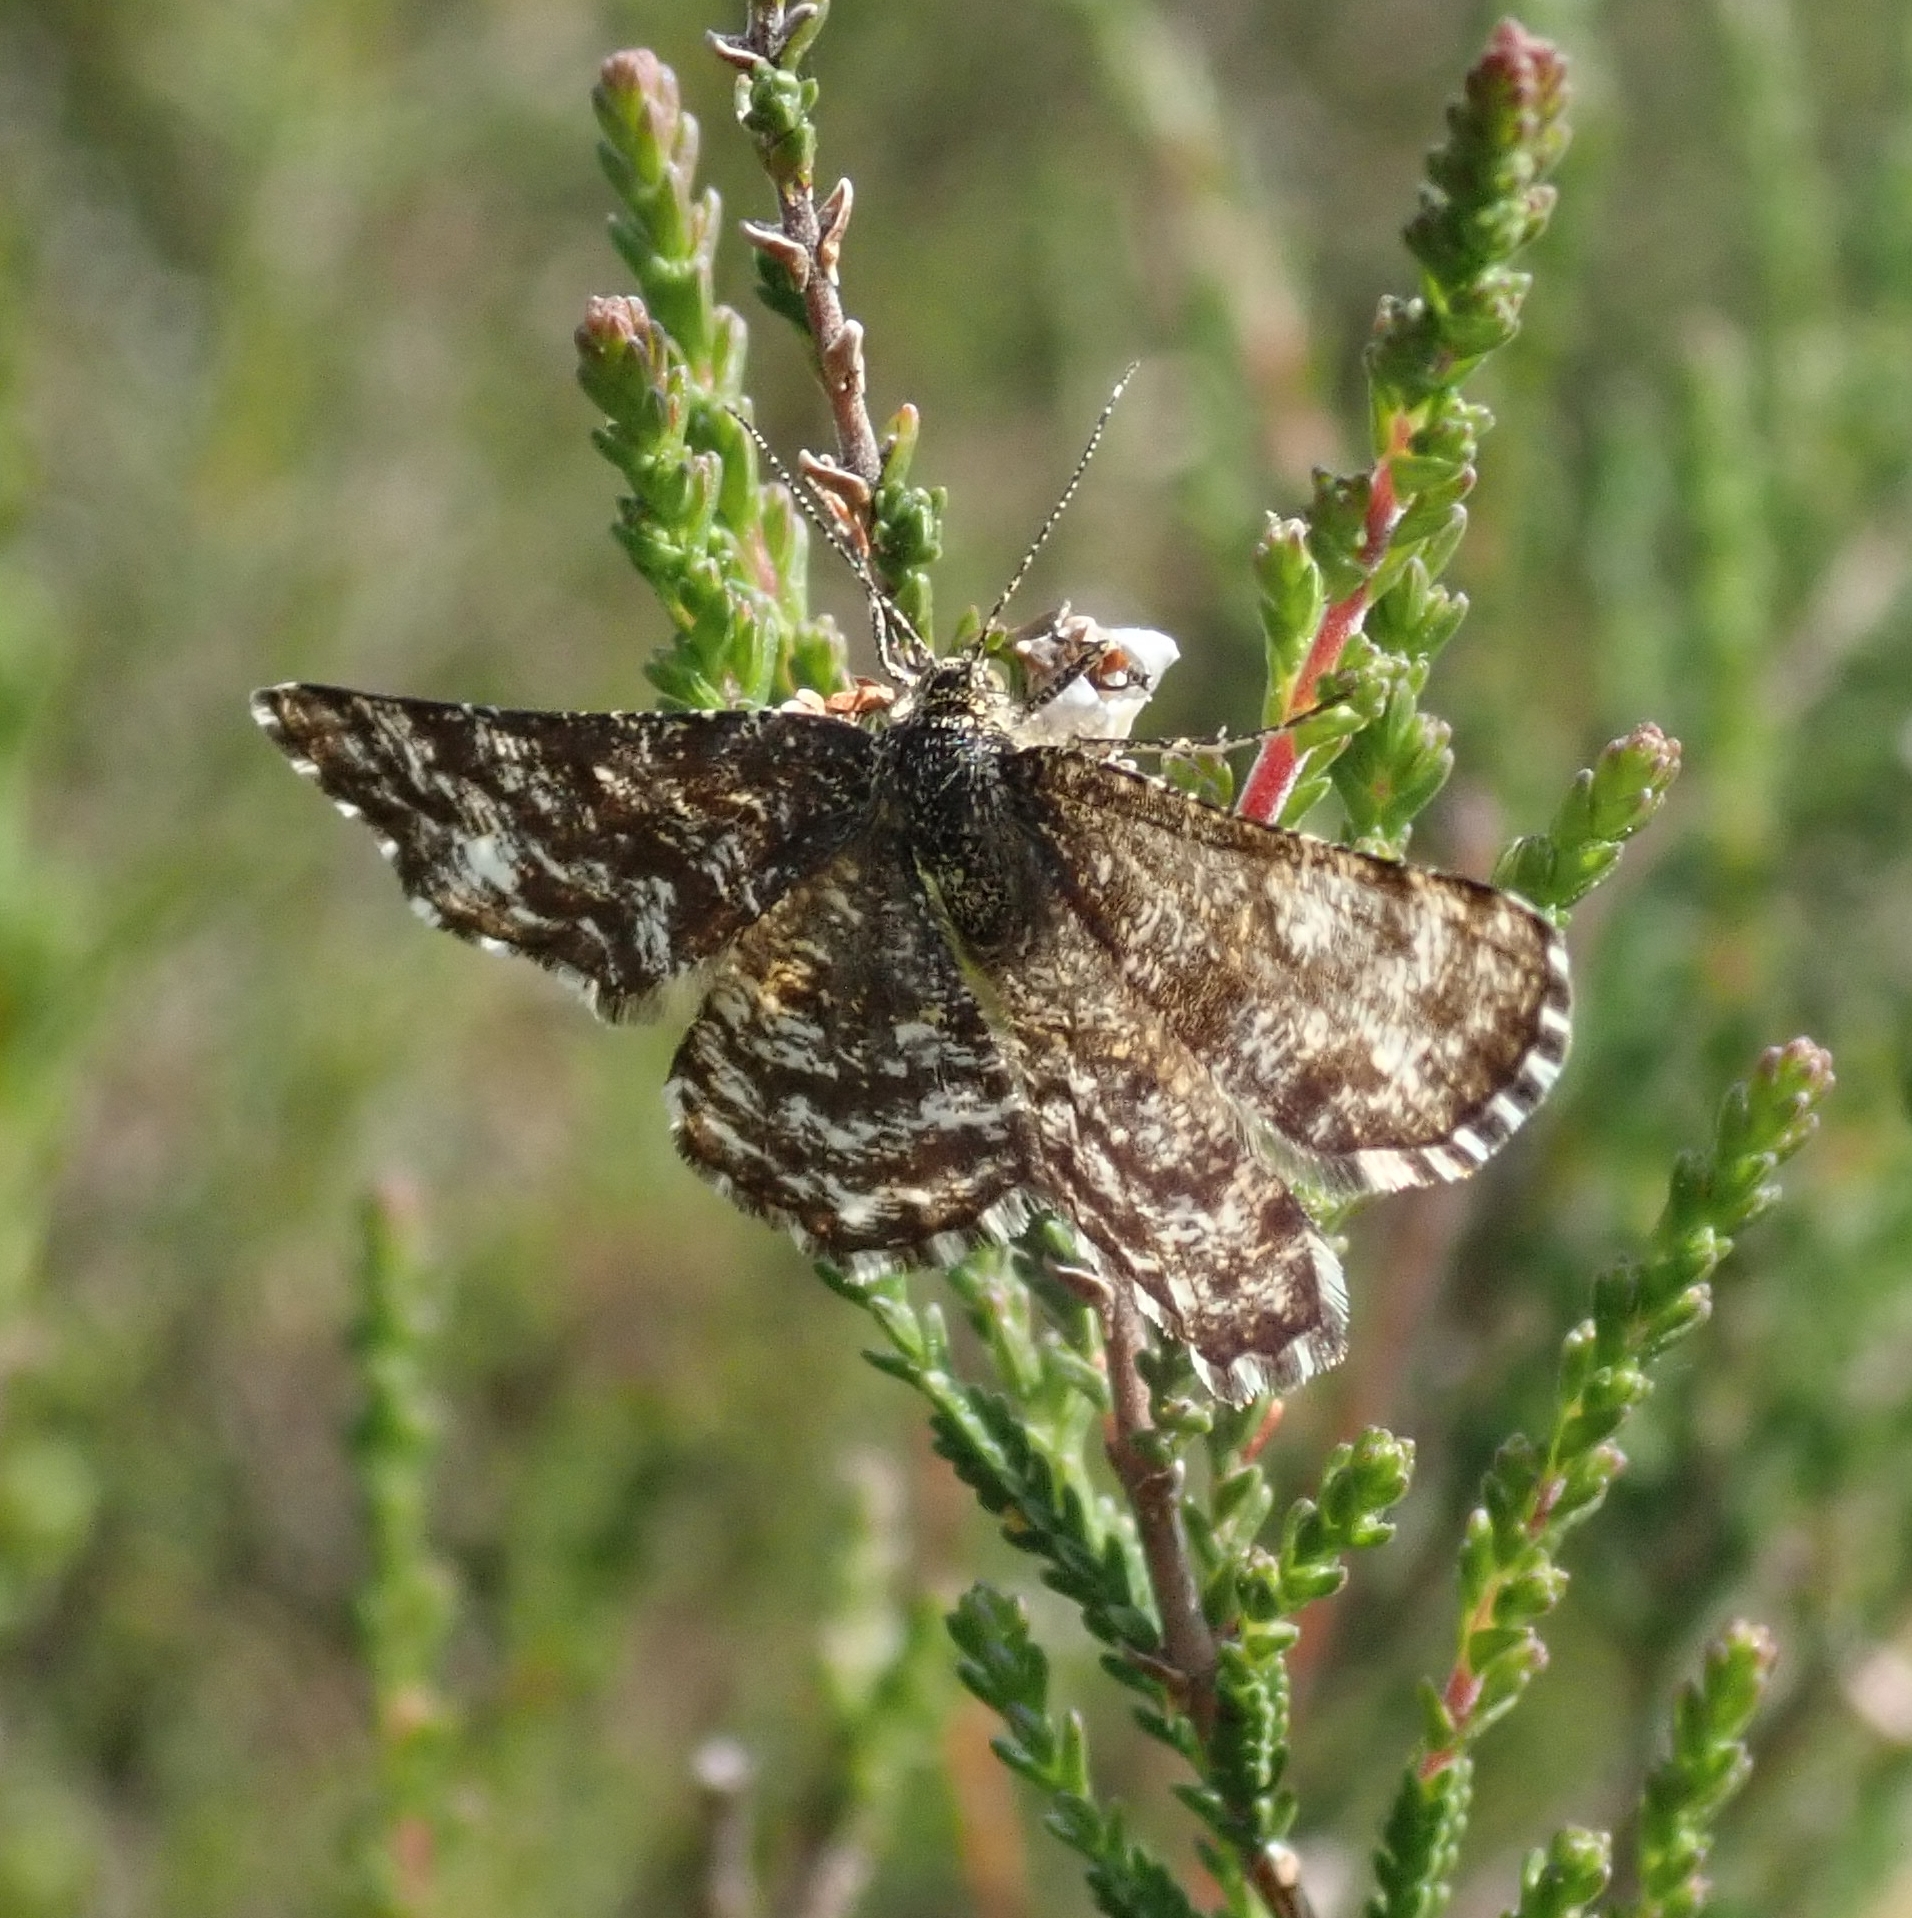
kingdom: Animalia
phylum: Arthropoda
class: Insecta
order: Lepidoptera
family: Geometridae
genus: Ematurga
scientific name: Ematurga atomaria
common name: Common heath
